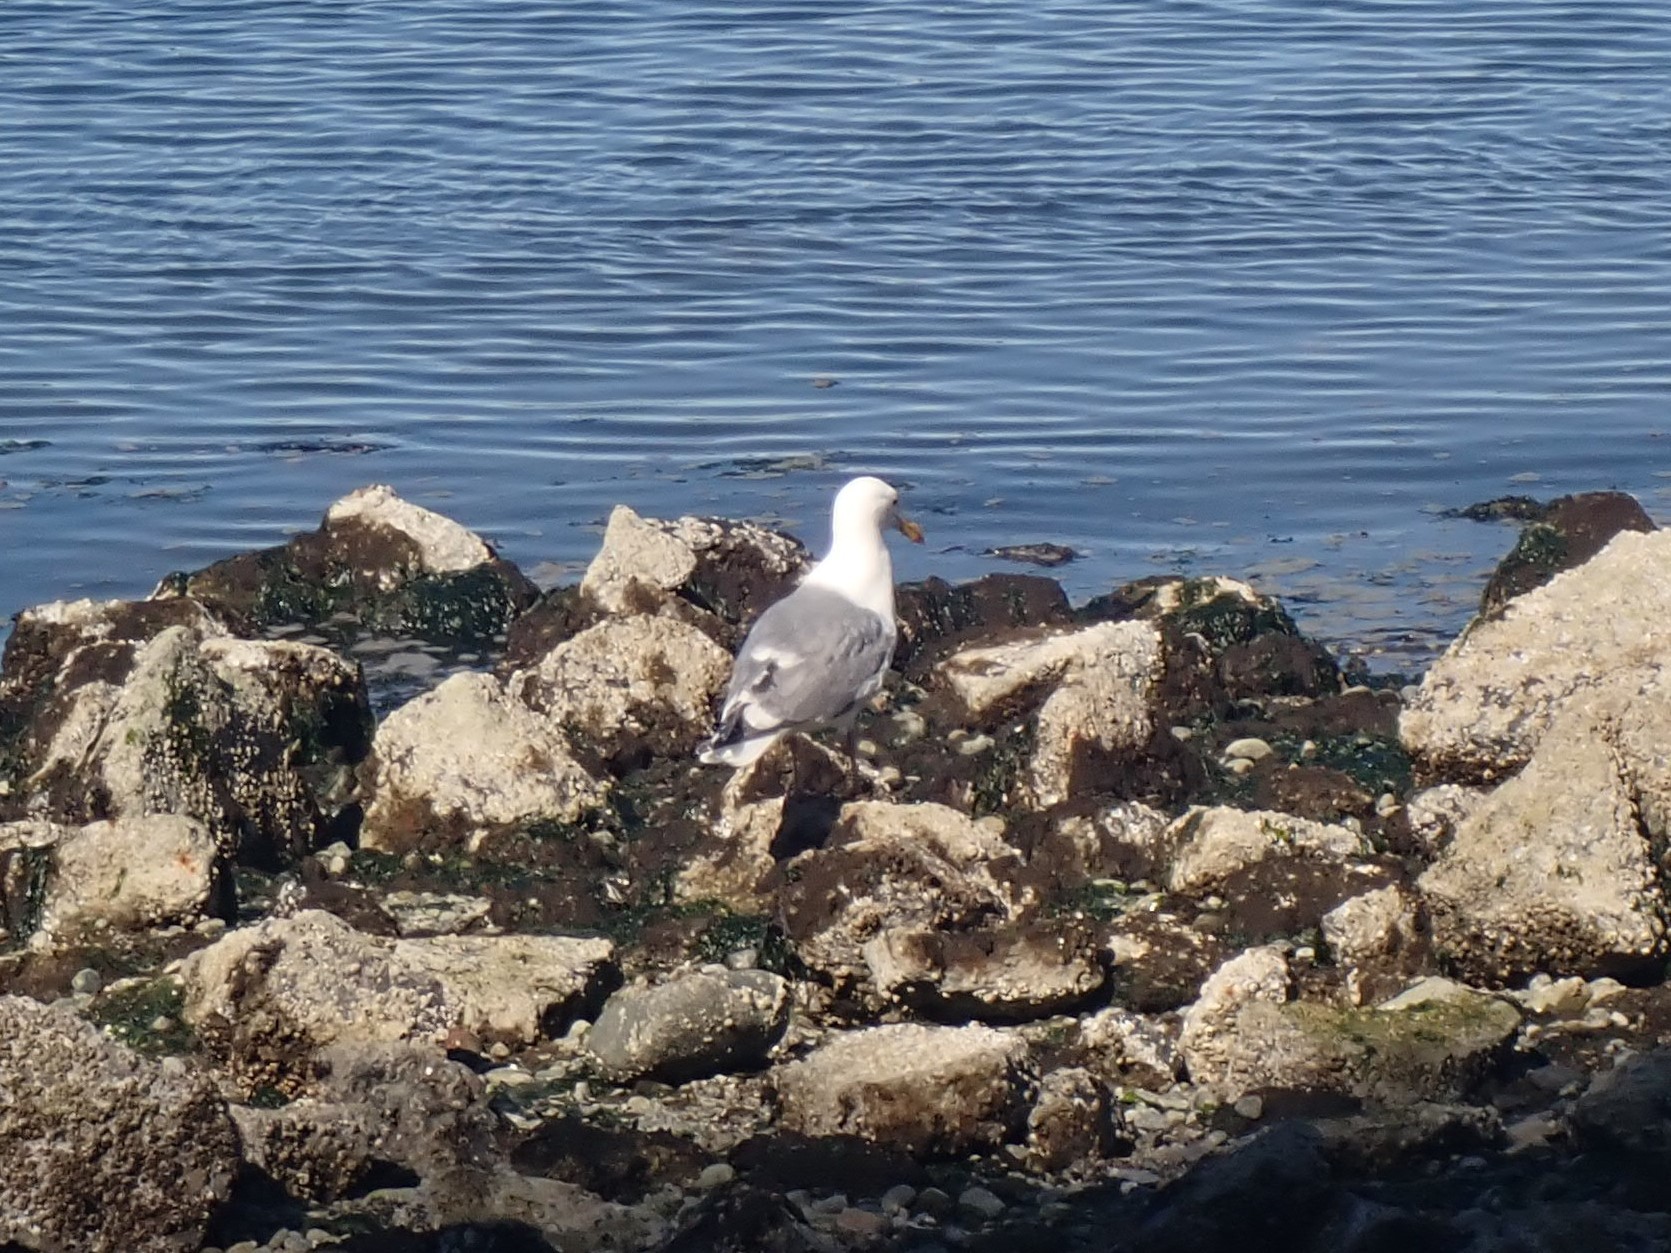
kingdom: Animalia
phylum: Chordata
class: Aves
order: Charadriiformes
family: Laridae
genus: Larus
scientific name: Larus
